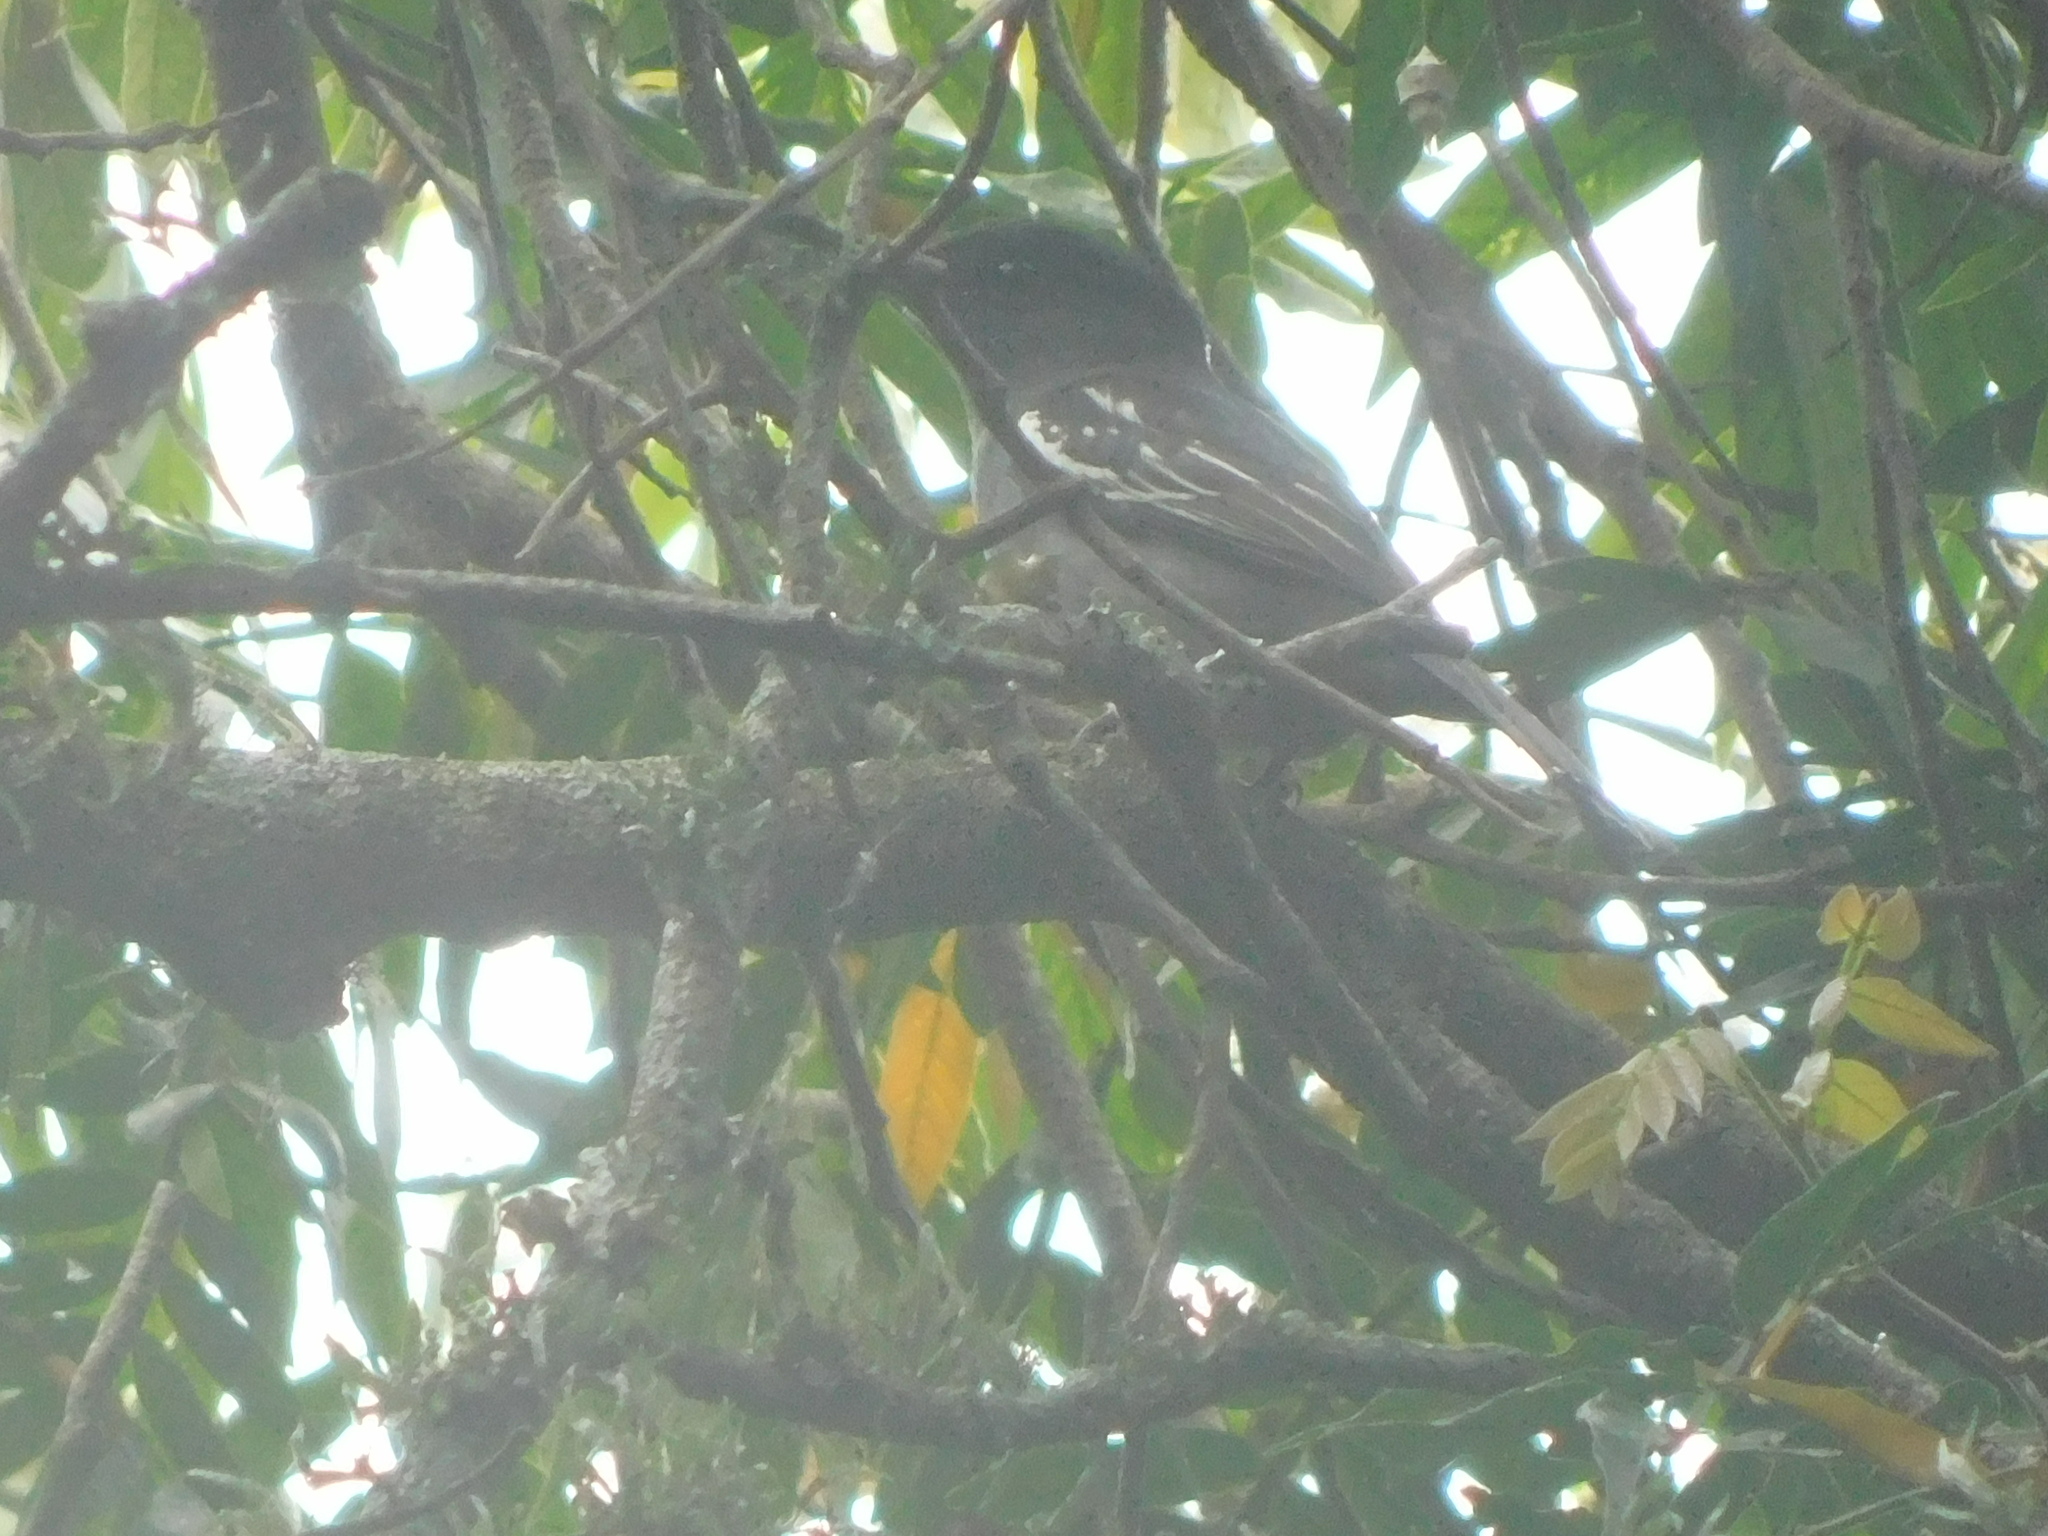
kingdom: Animalia
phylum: Chordata
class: Aves
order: Passeriformes
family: Cotingidae
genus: Pachyramphus
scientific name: Pachyramphus polychopterus
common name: White-winged becard
